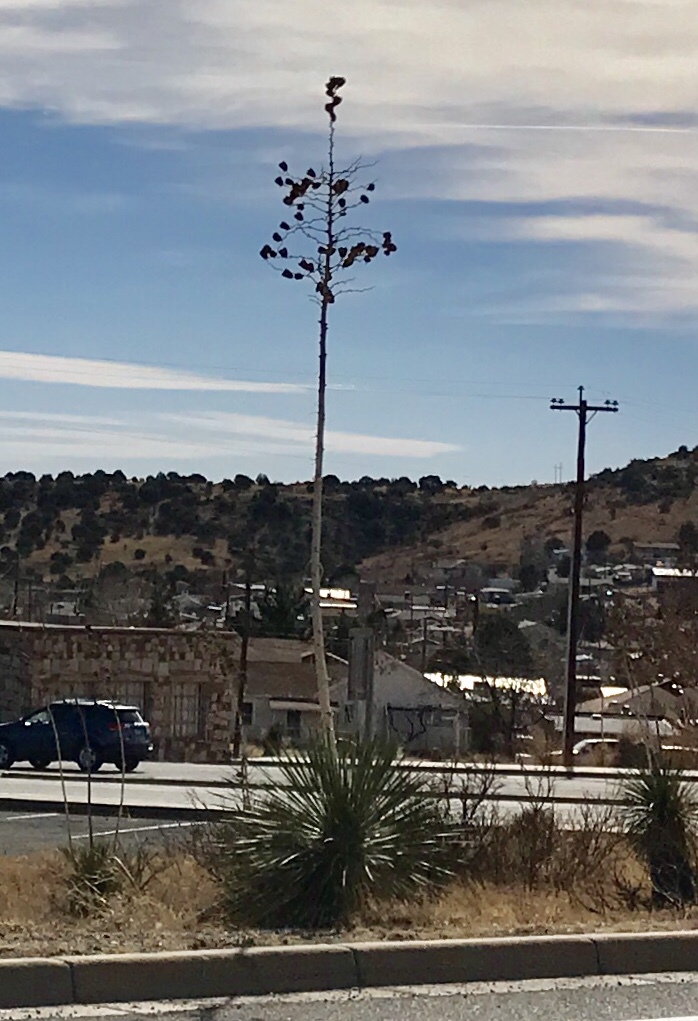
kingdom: Plantae
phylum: Tracheophyta
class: Liliopsida
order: Asparagales
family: Asparagaceae
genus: Yucca
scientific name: Yucca elata
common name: Palmella
